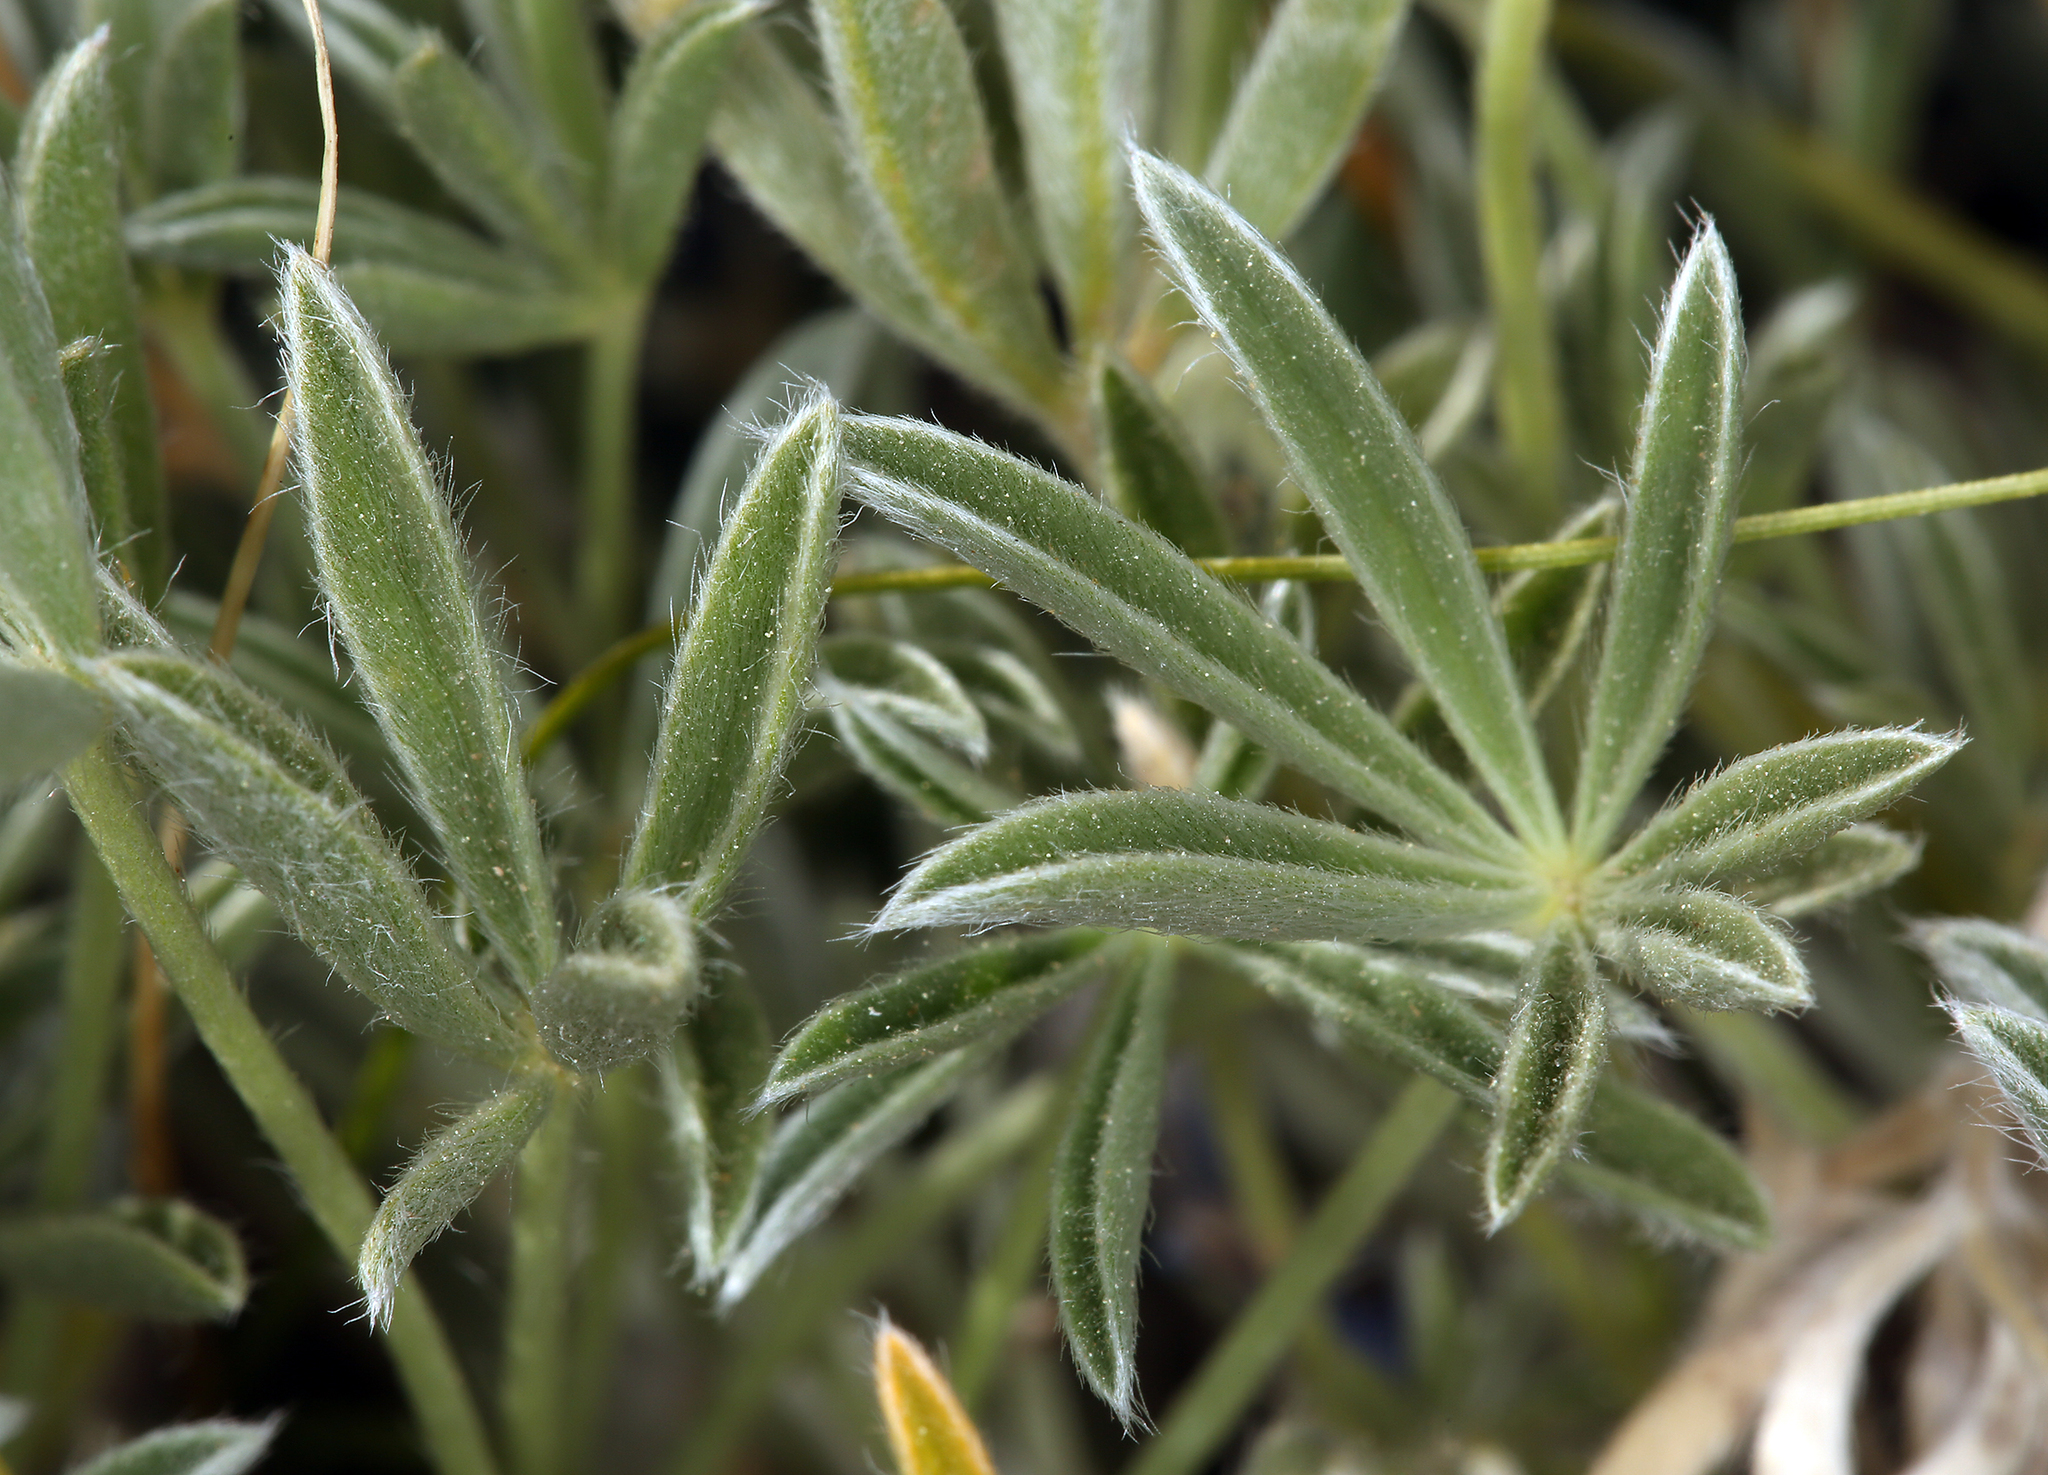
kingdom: Plantae
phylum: Tracheophyta
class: Magnoliopsida
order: Fabales
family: Fabaceae
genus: Lupinus
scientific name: Lupinus argenteus
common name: Silvery lupine
